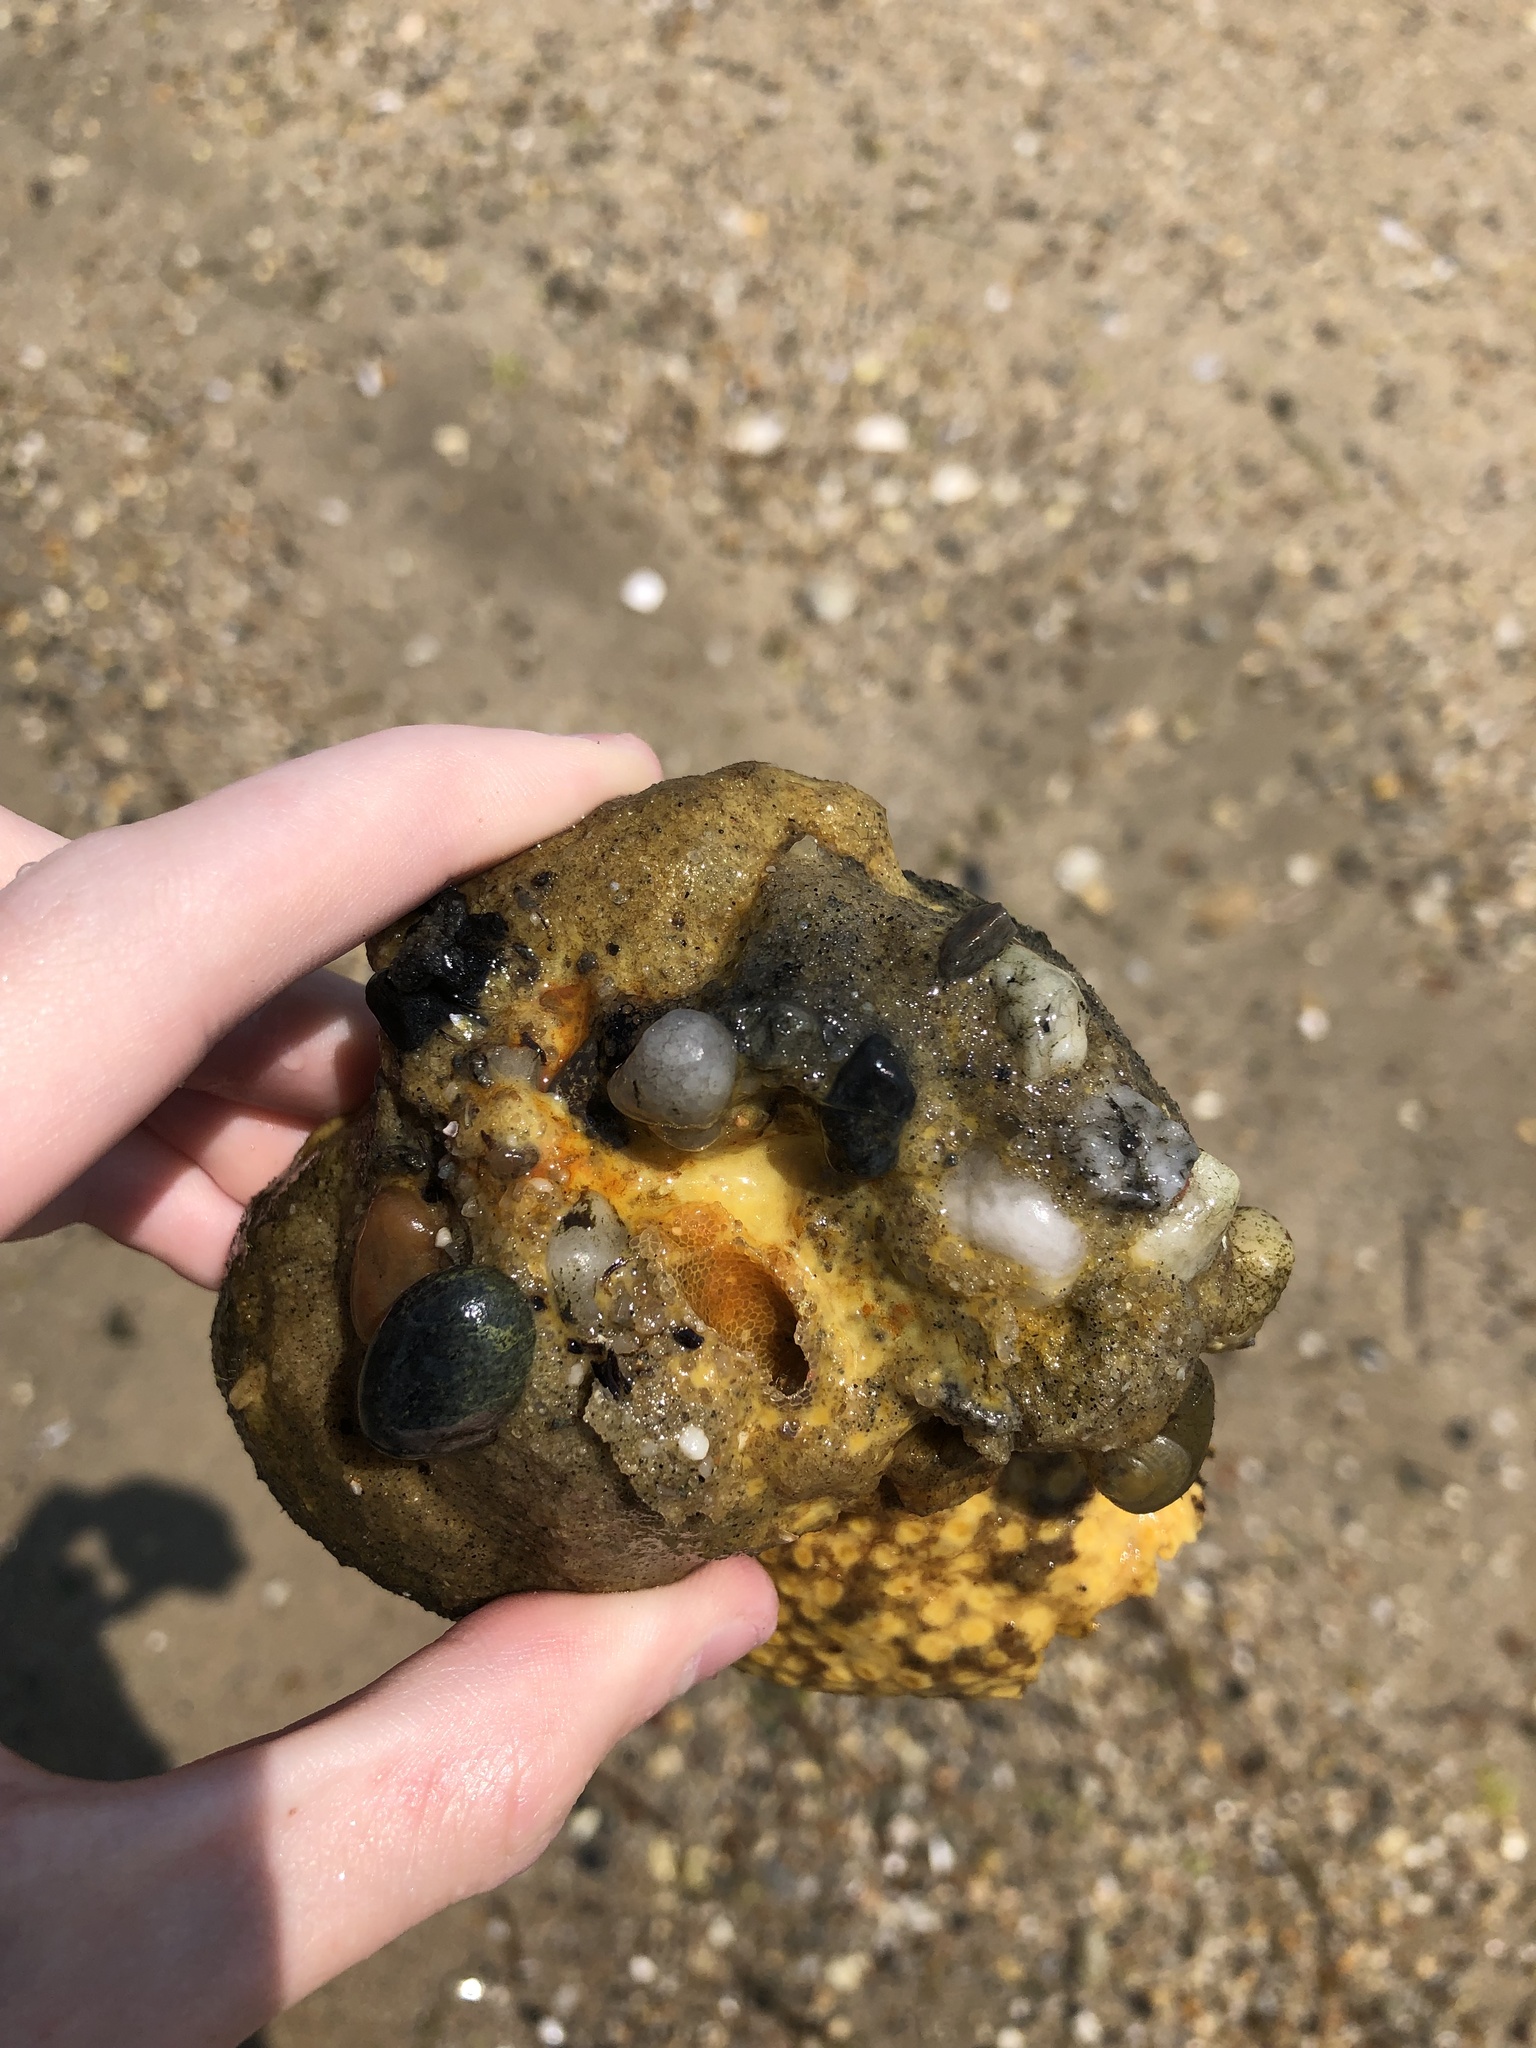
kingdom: Animalia
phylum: Porifera
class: Demospongiae
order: Clionaida
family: Clionaidae
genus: Cliona
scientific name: Cliona celata
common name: Boring sponge
